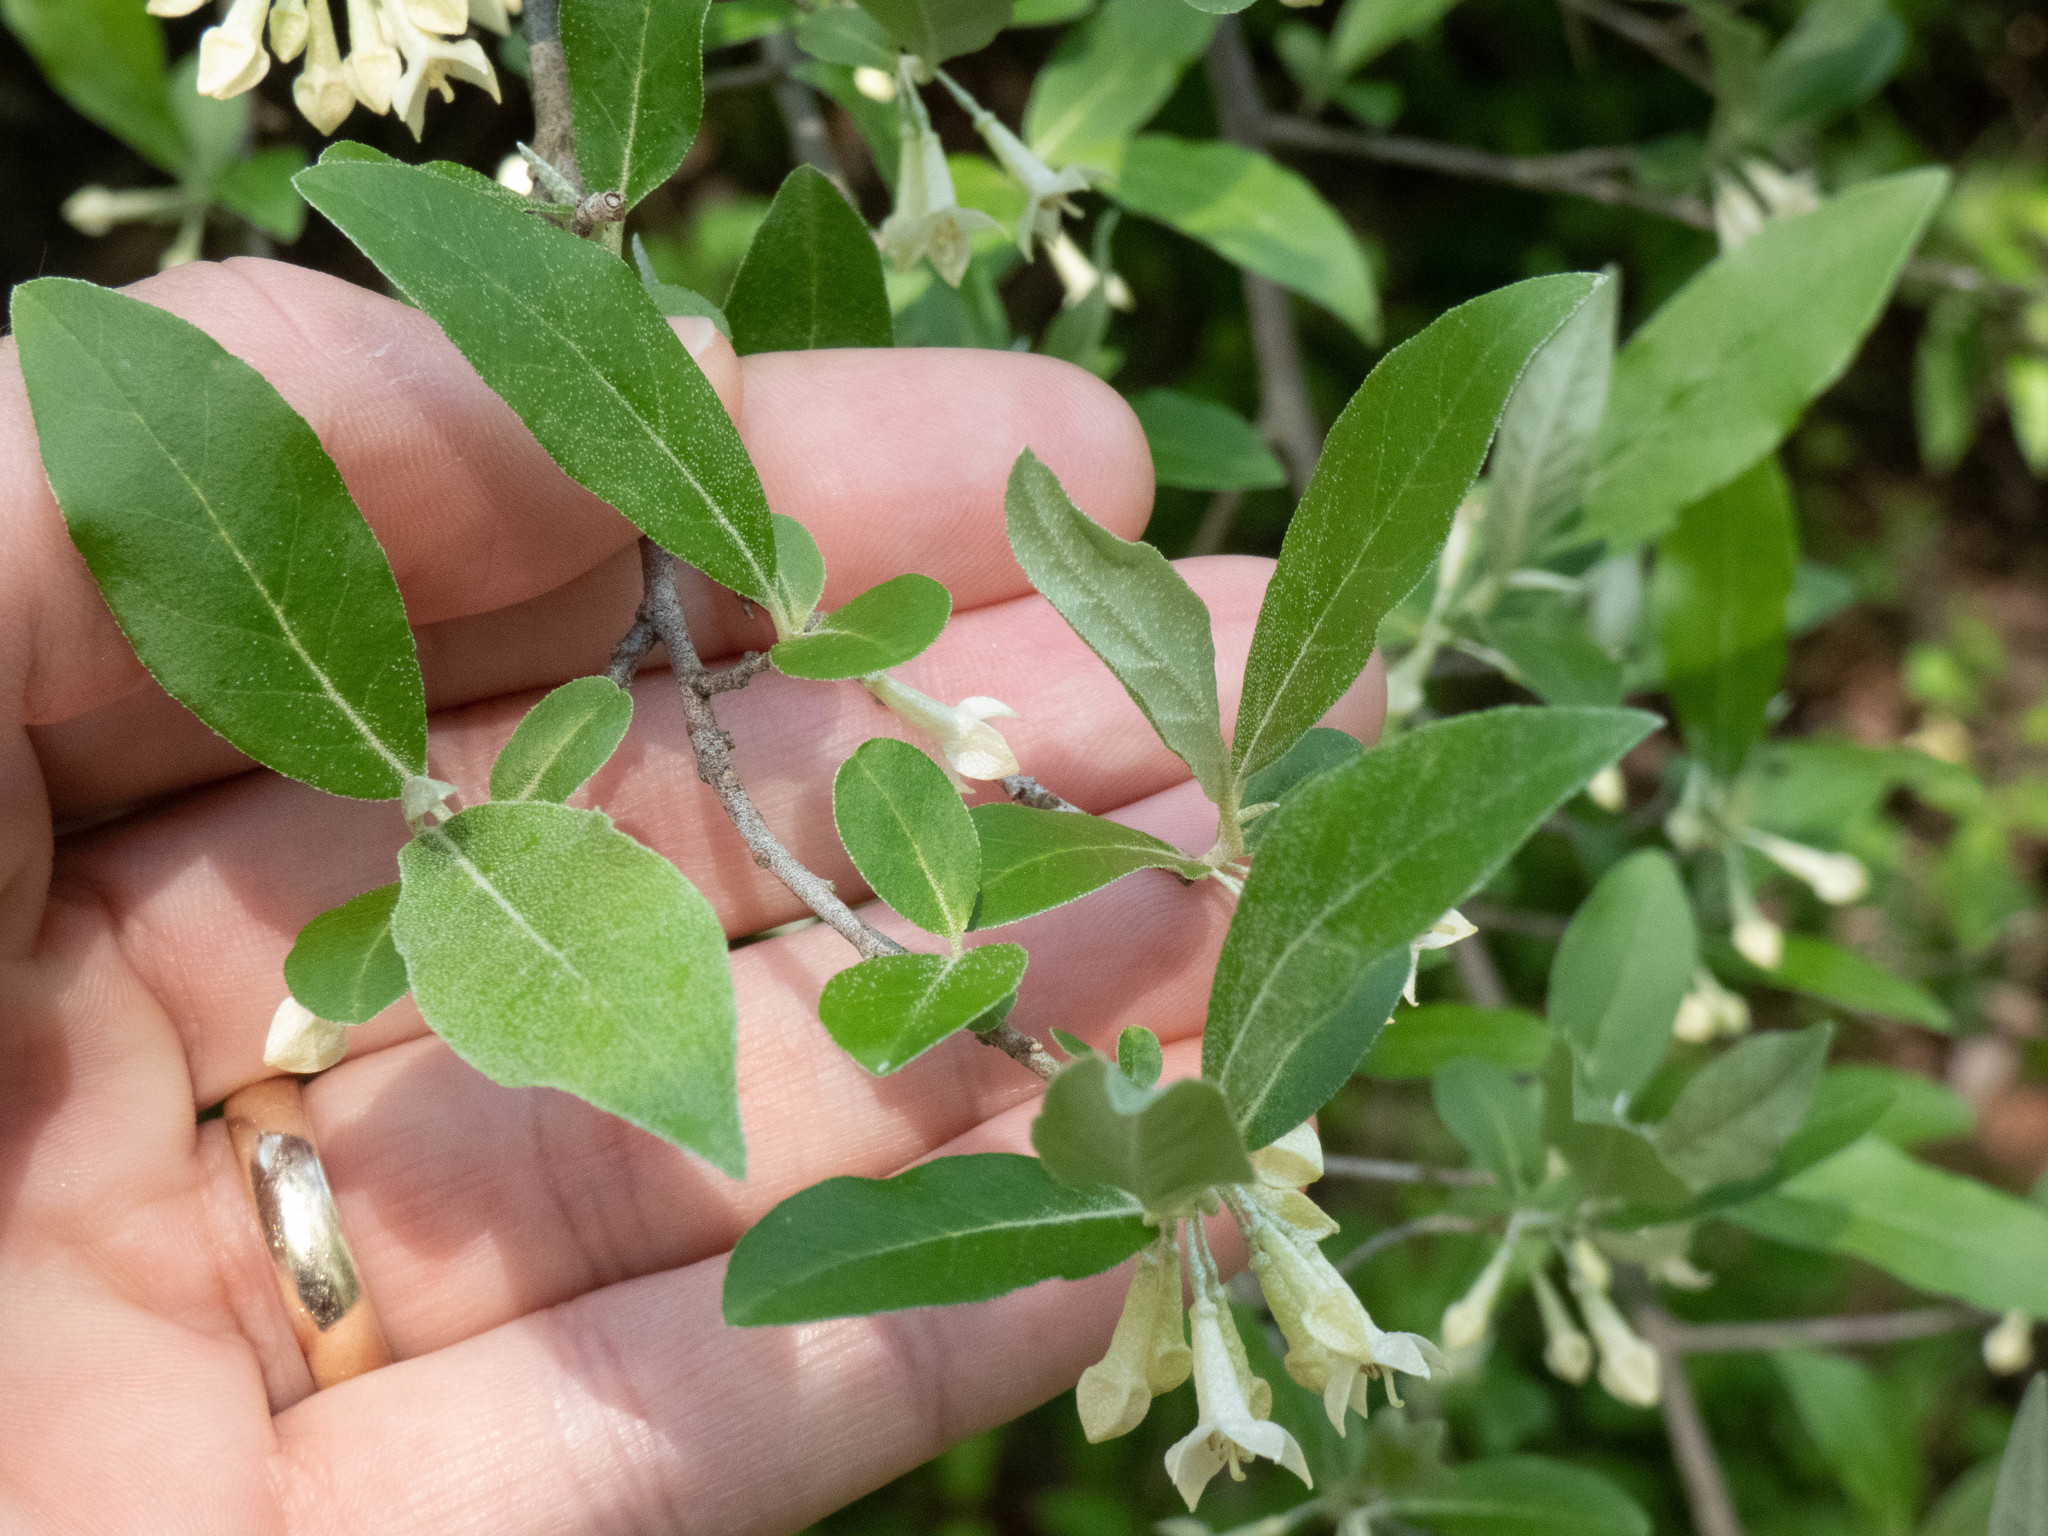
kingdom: Plantae
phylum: Tracheophyta
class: Magnoliopsida
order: Rosales
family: Elaeagnaceae
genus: Elaeagnus
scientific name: Elaeagnus umbellata
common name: Autumn olive
